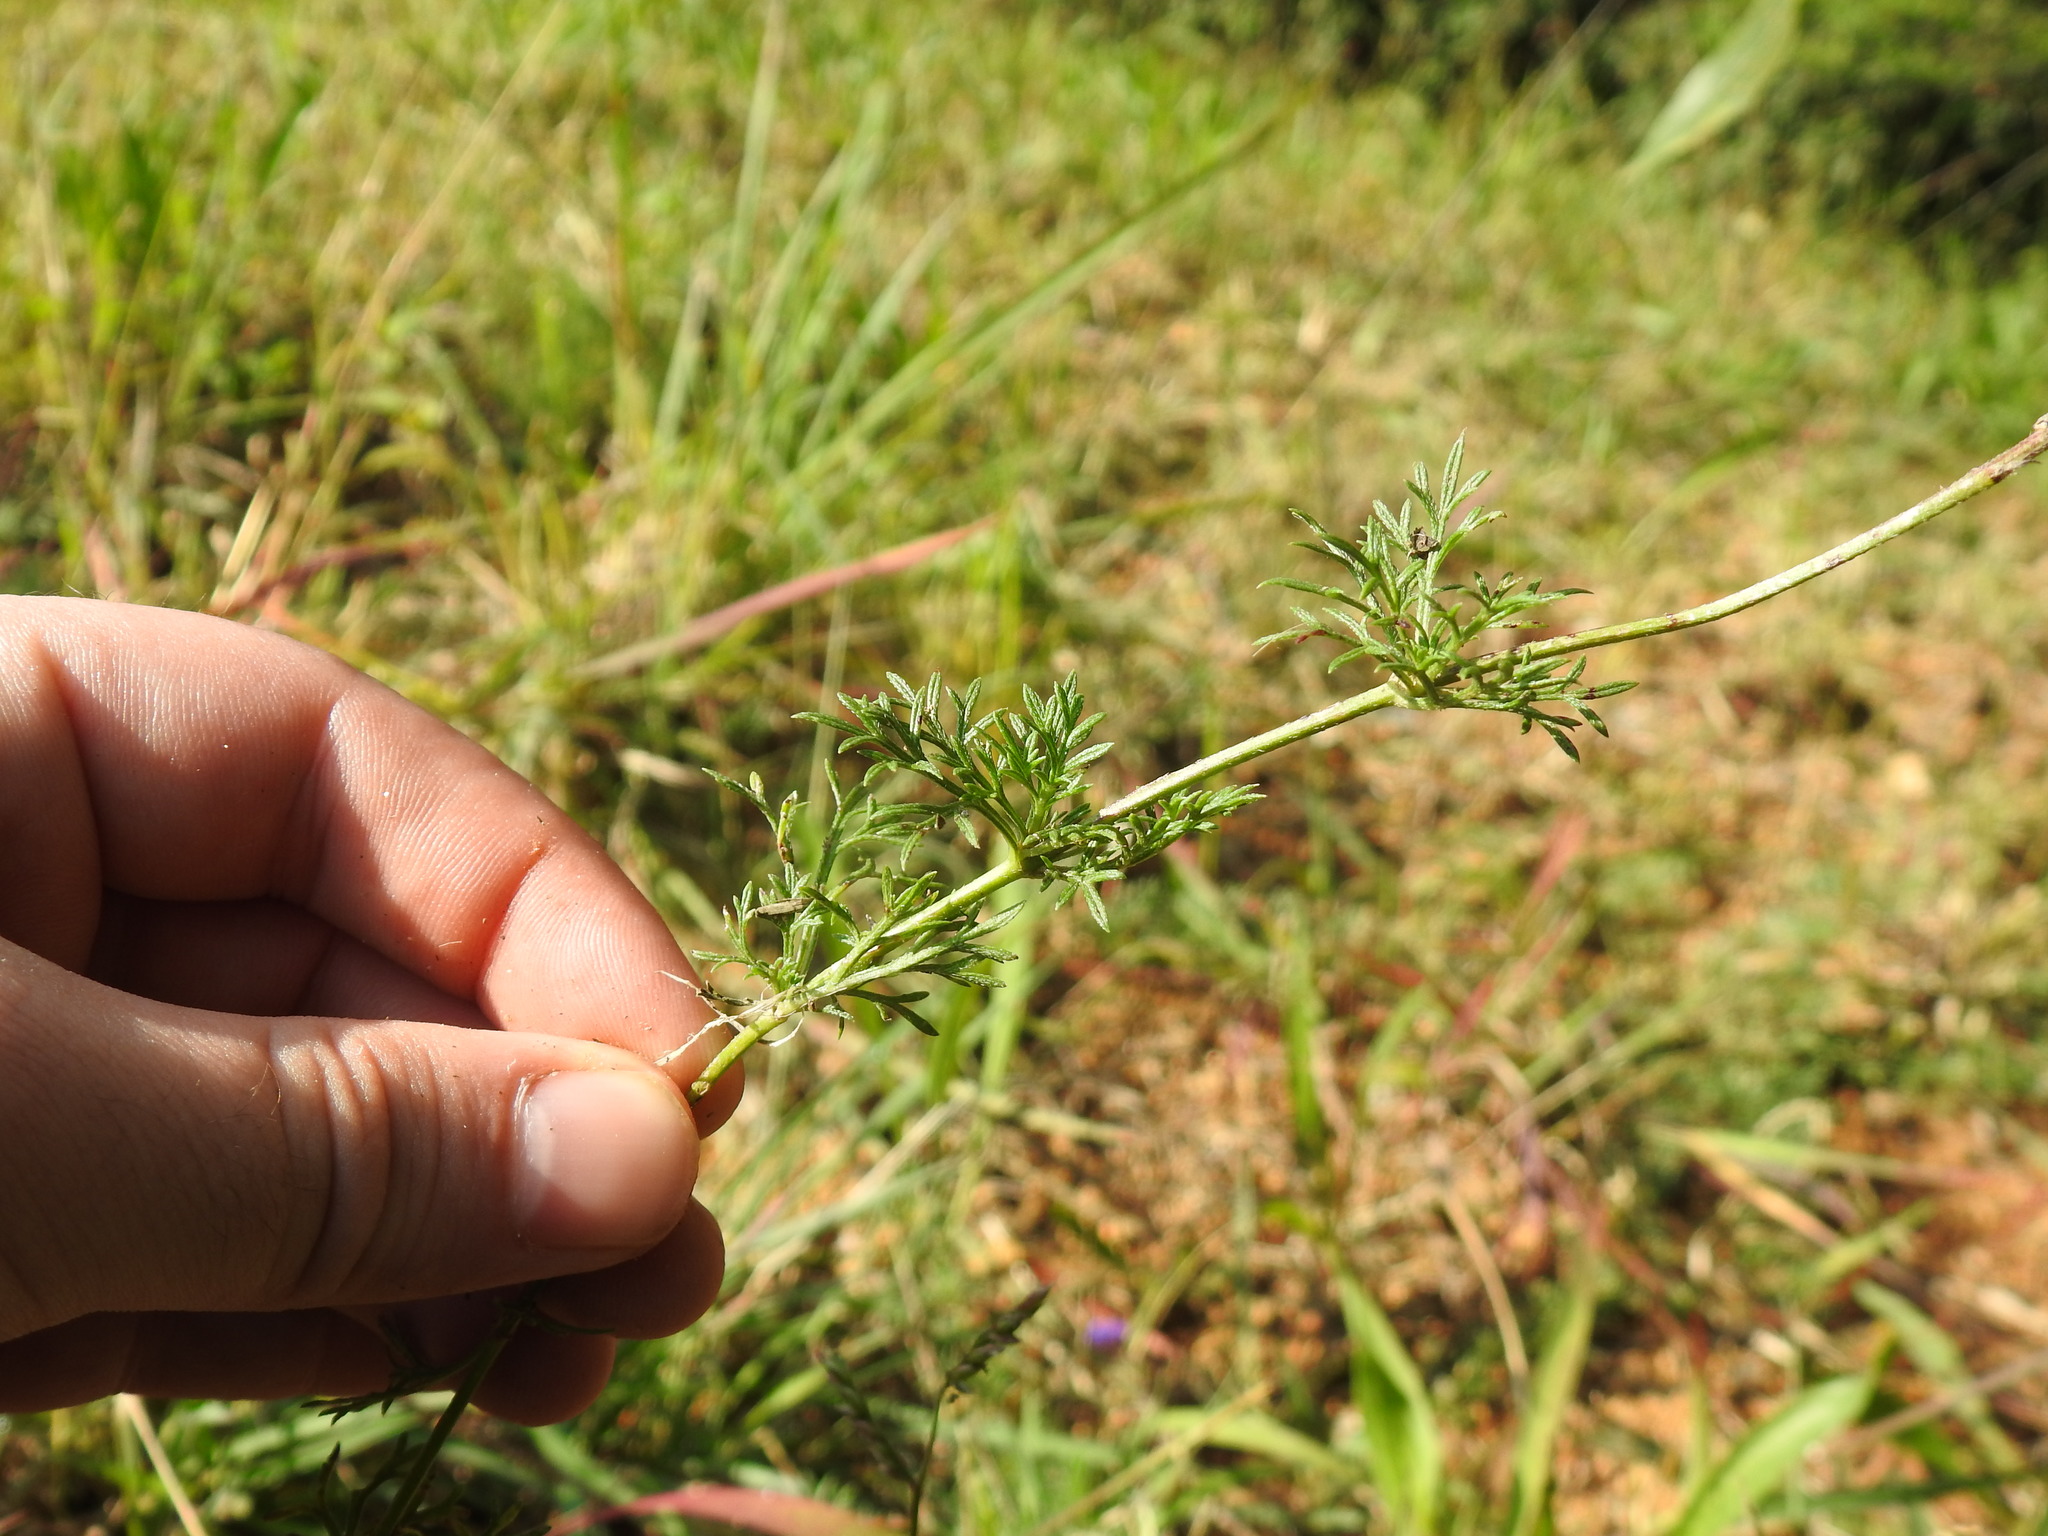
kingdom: Plantae
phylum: Tracheophyta
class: Magnoliopsida
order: Lamiales
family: Verbenaceae
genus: Verbena
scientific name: Verbena aristigera
